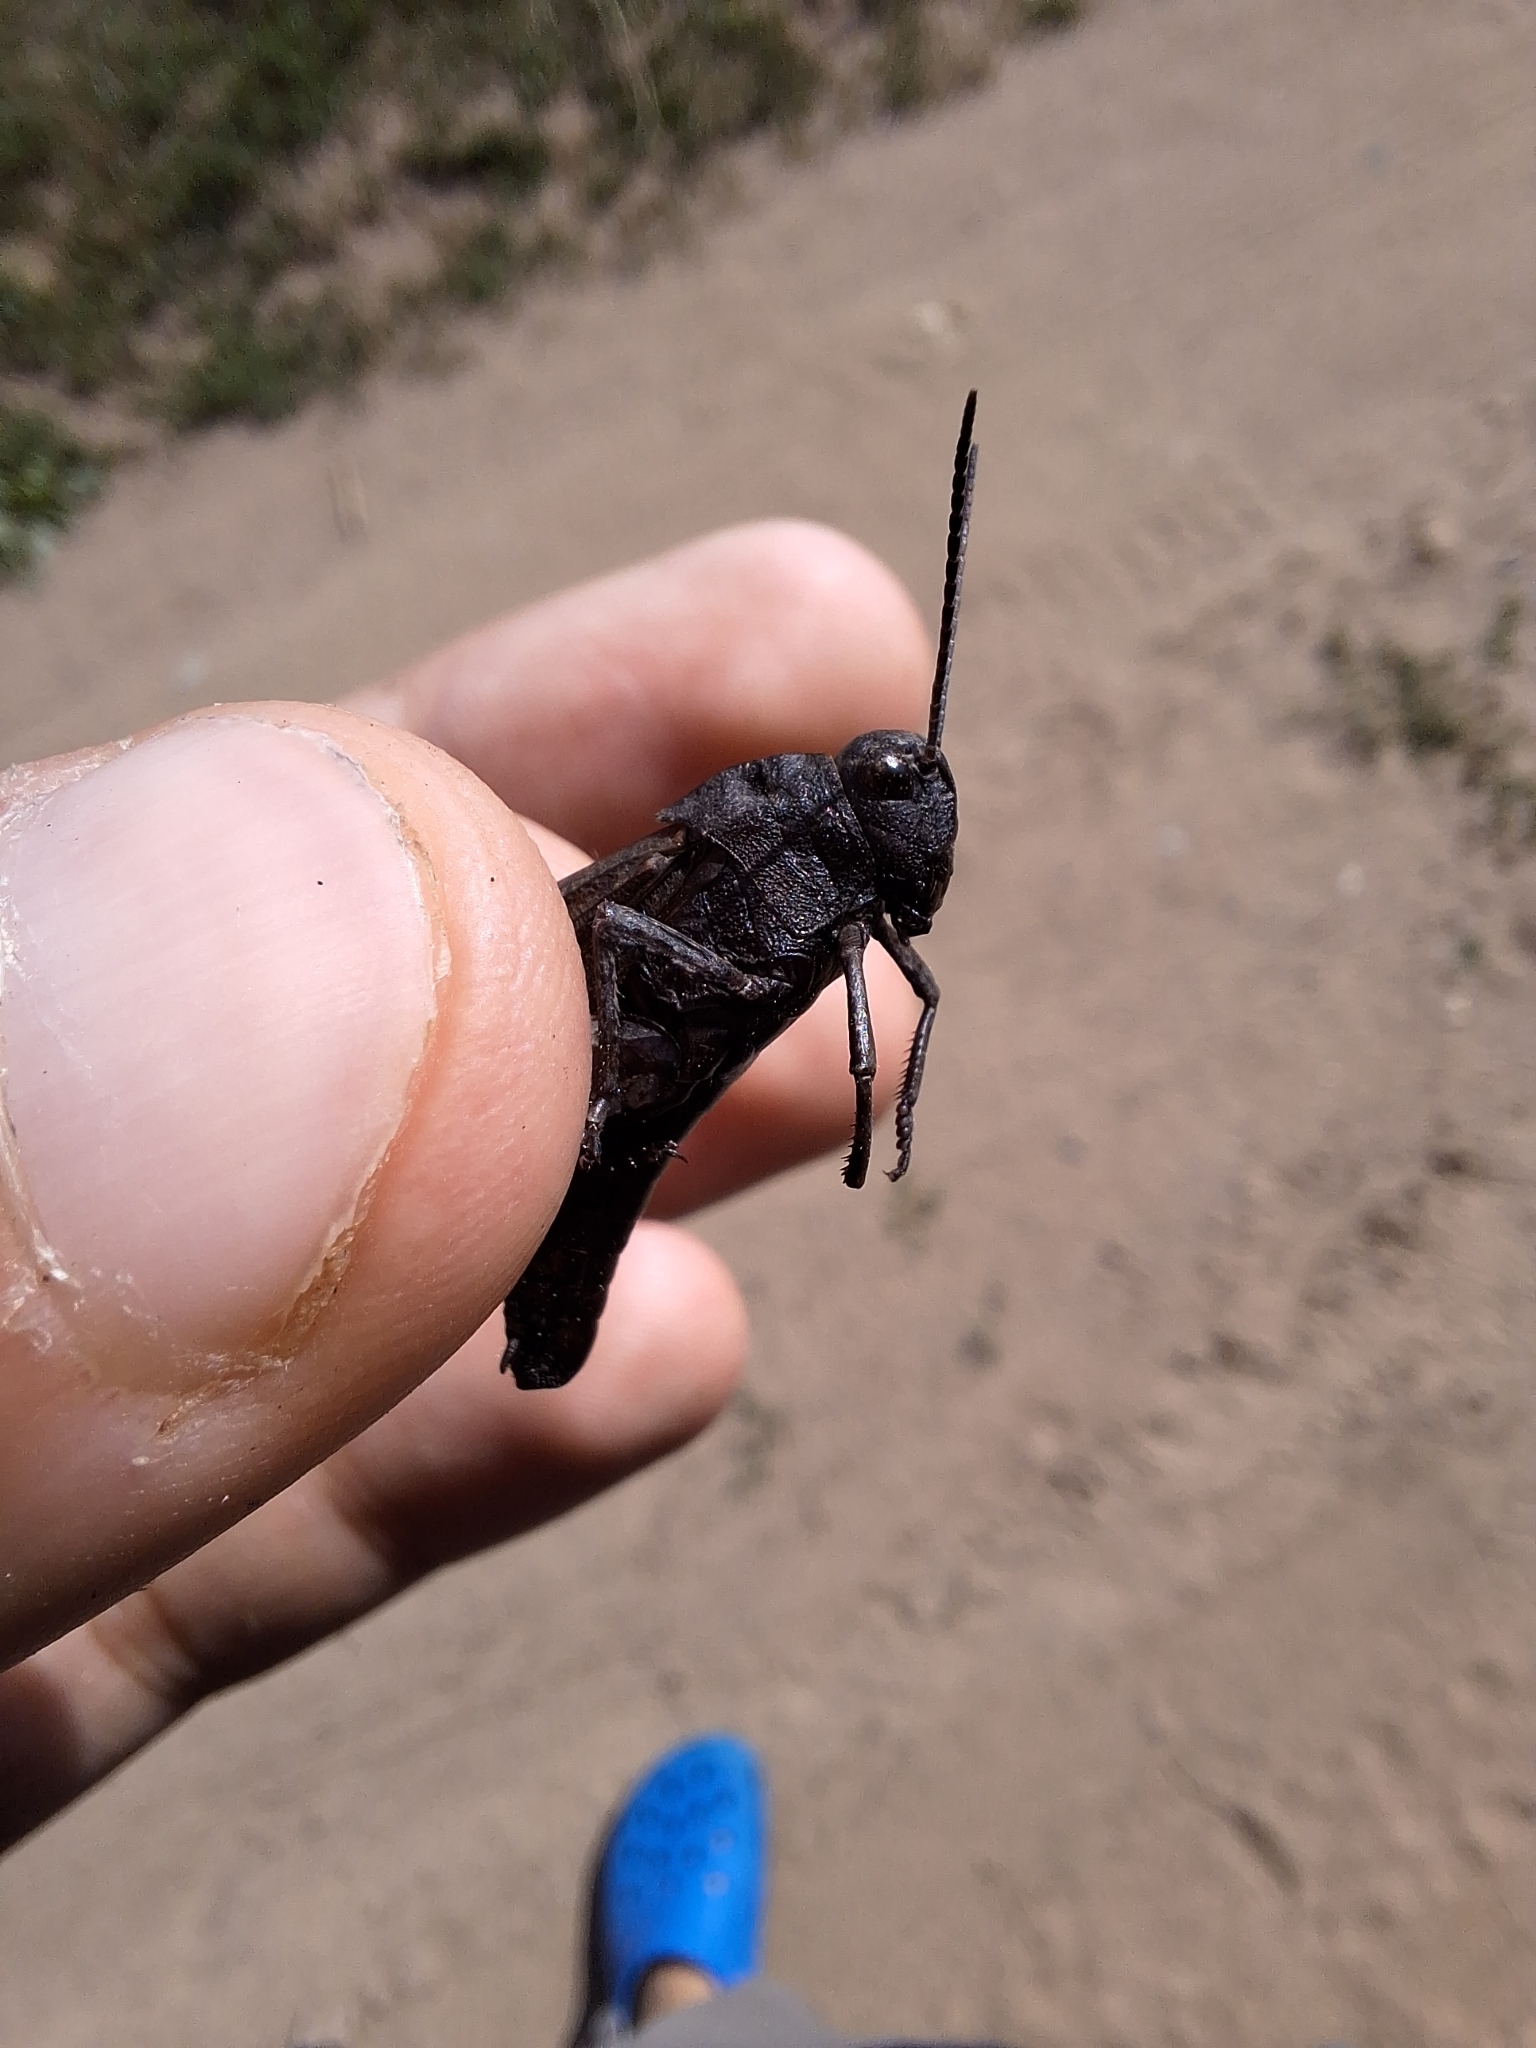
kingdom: Animalia
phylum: Arthropoda
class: Insecta
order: Orthoptera
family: Acrididae
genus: Psophus
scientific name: Psophus stridulus
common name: Rattle grasshopper
